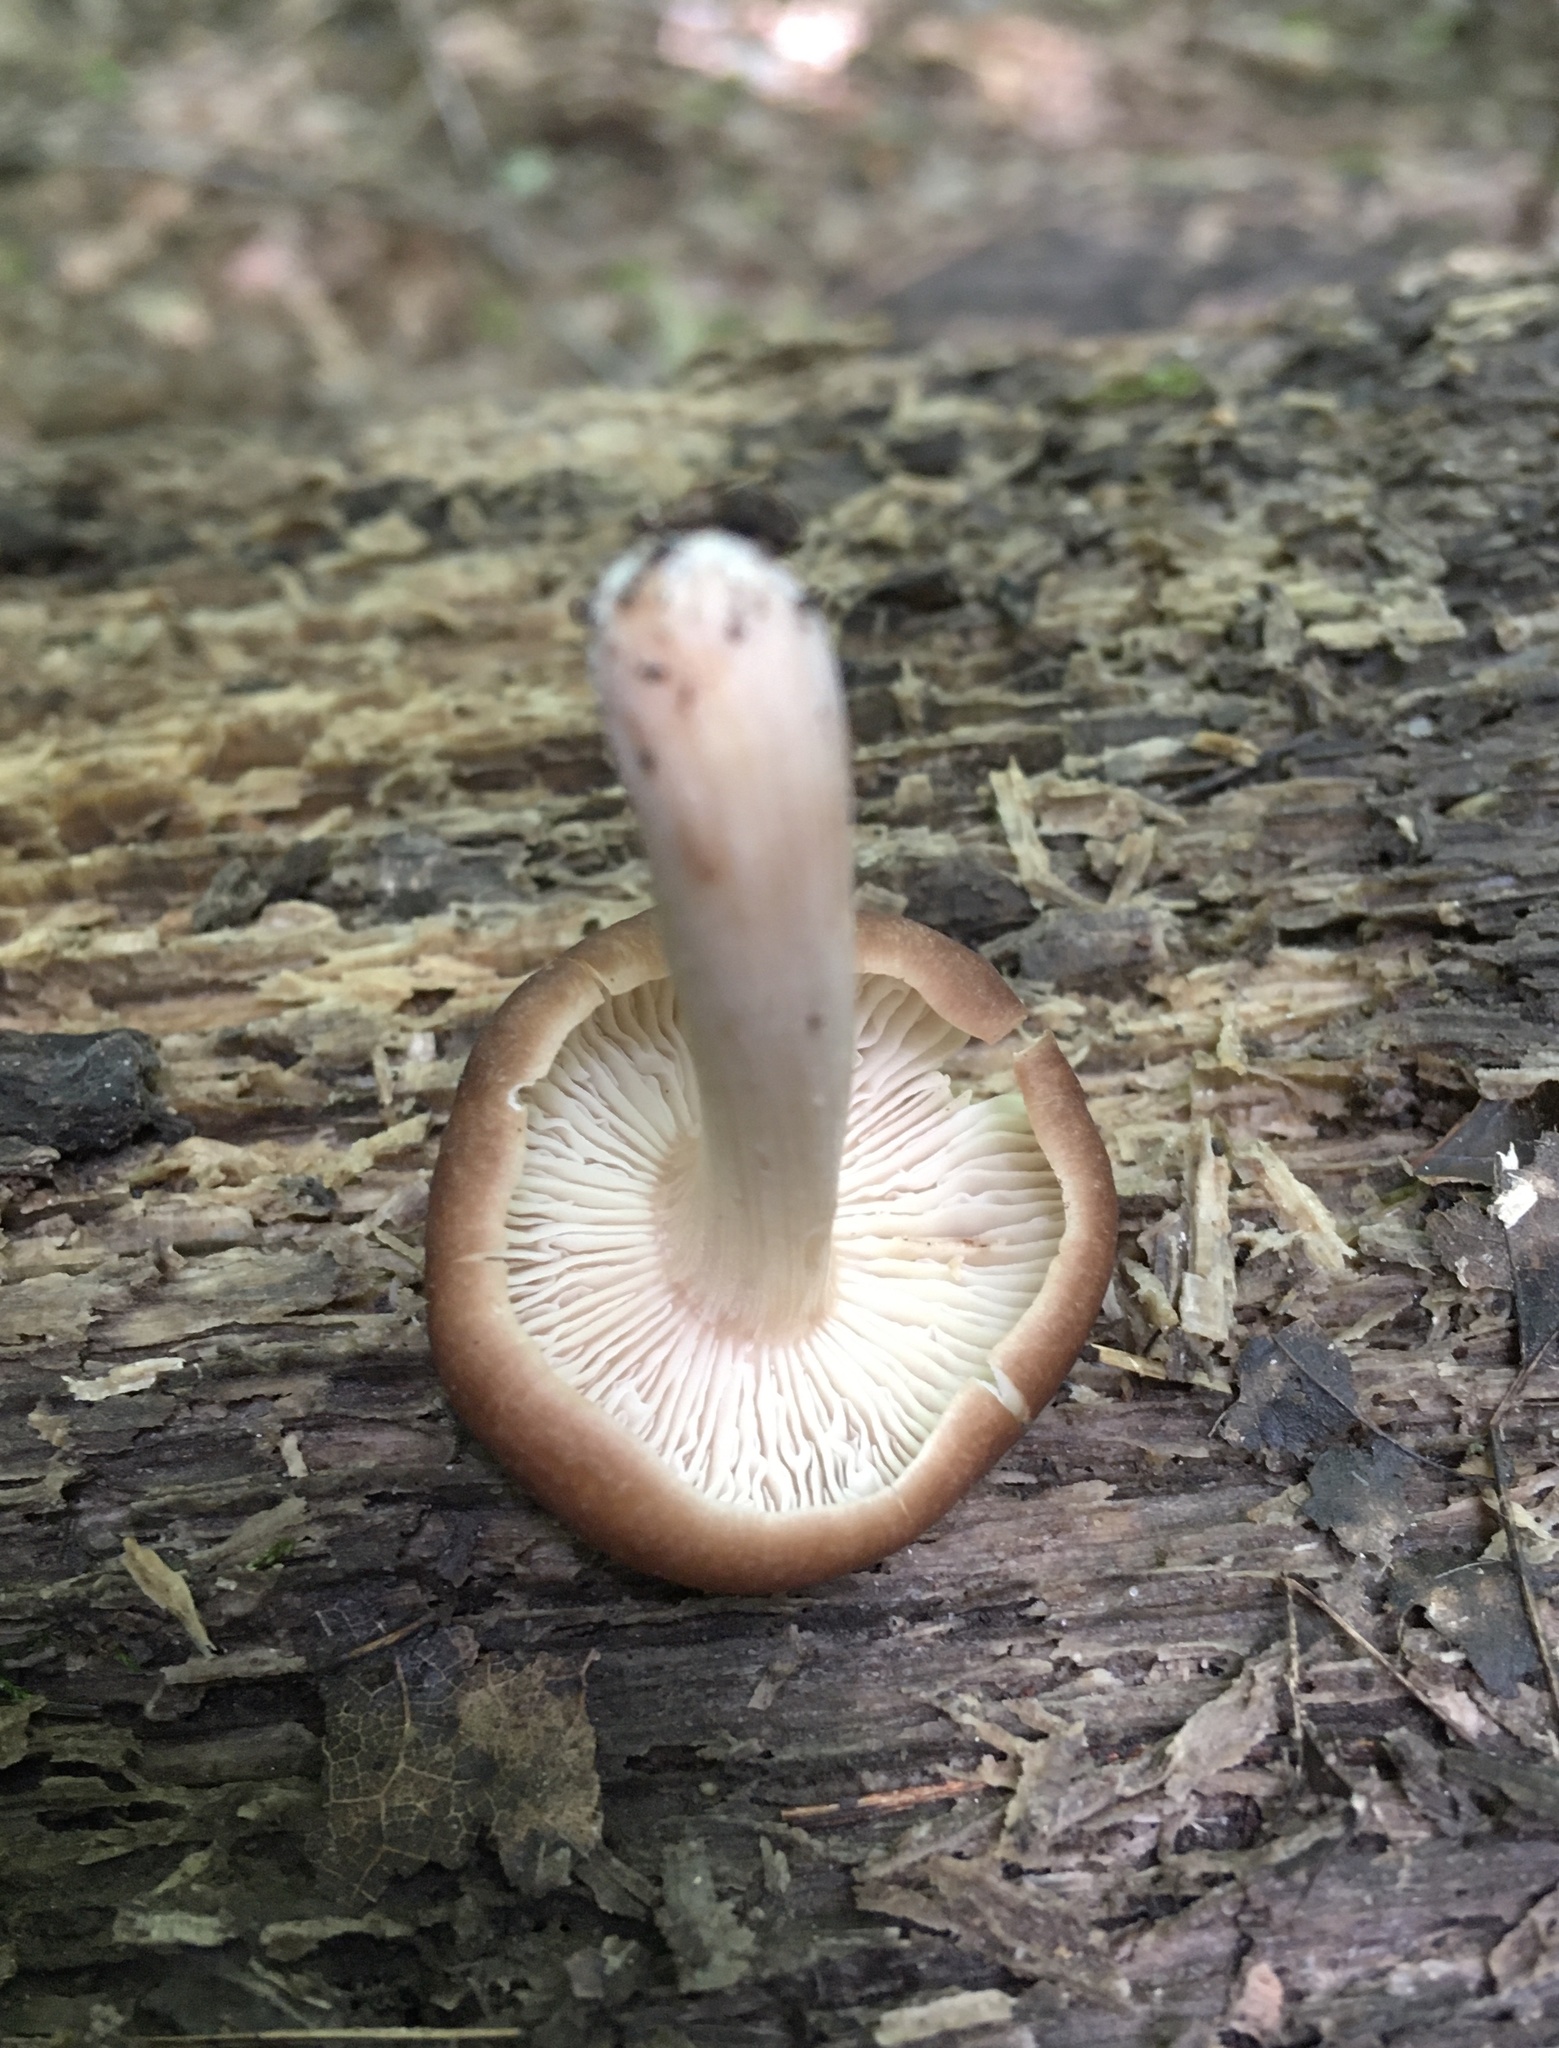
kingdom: Fungi
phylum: Basidiomycota
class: Agaricomycetes
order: Agaricales
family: Omphalotaceae
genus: Collybiopsis
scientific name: Collybiopsis luxurians
